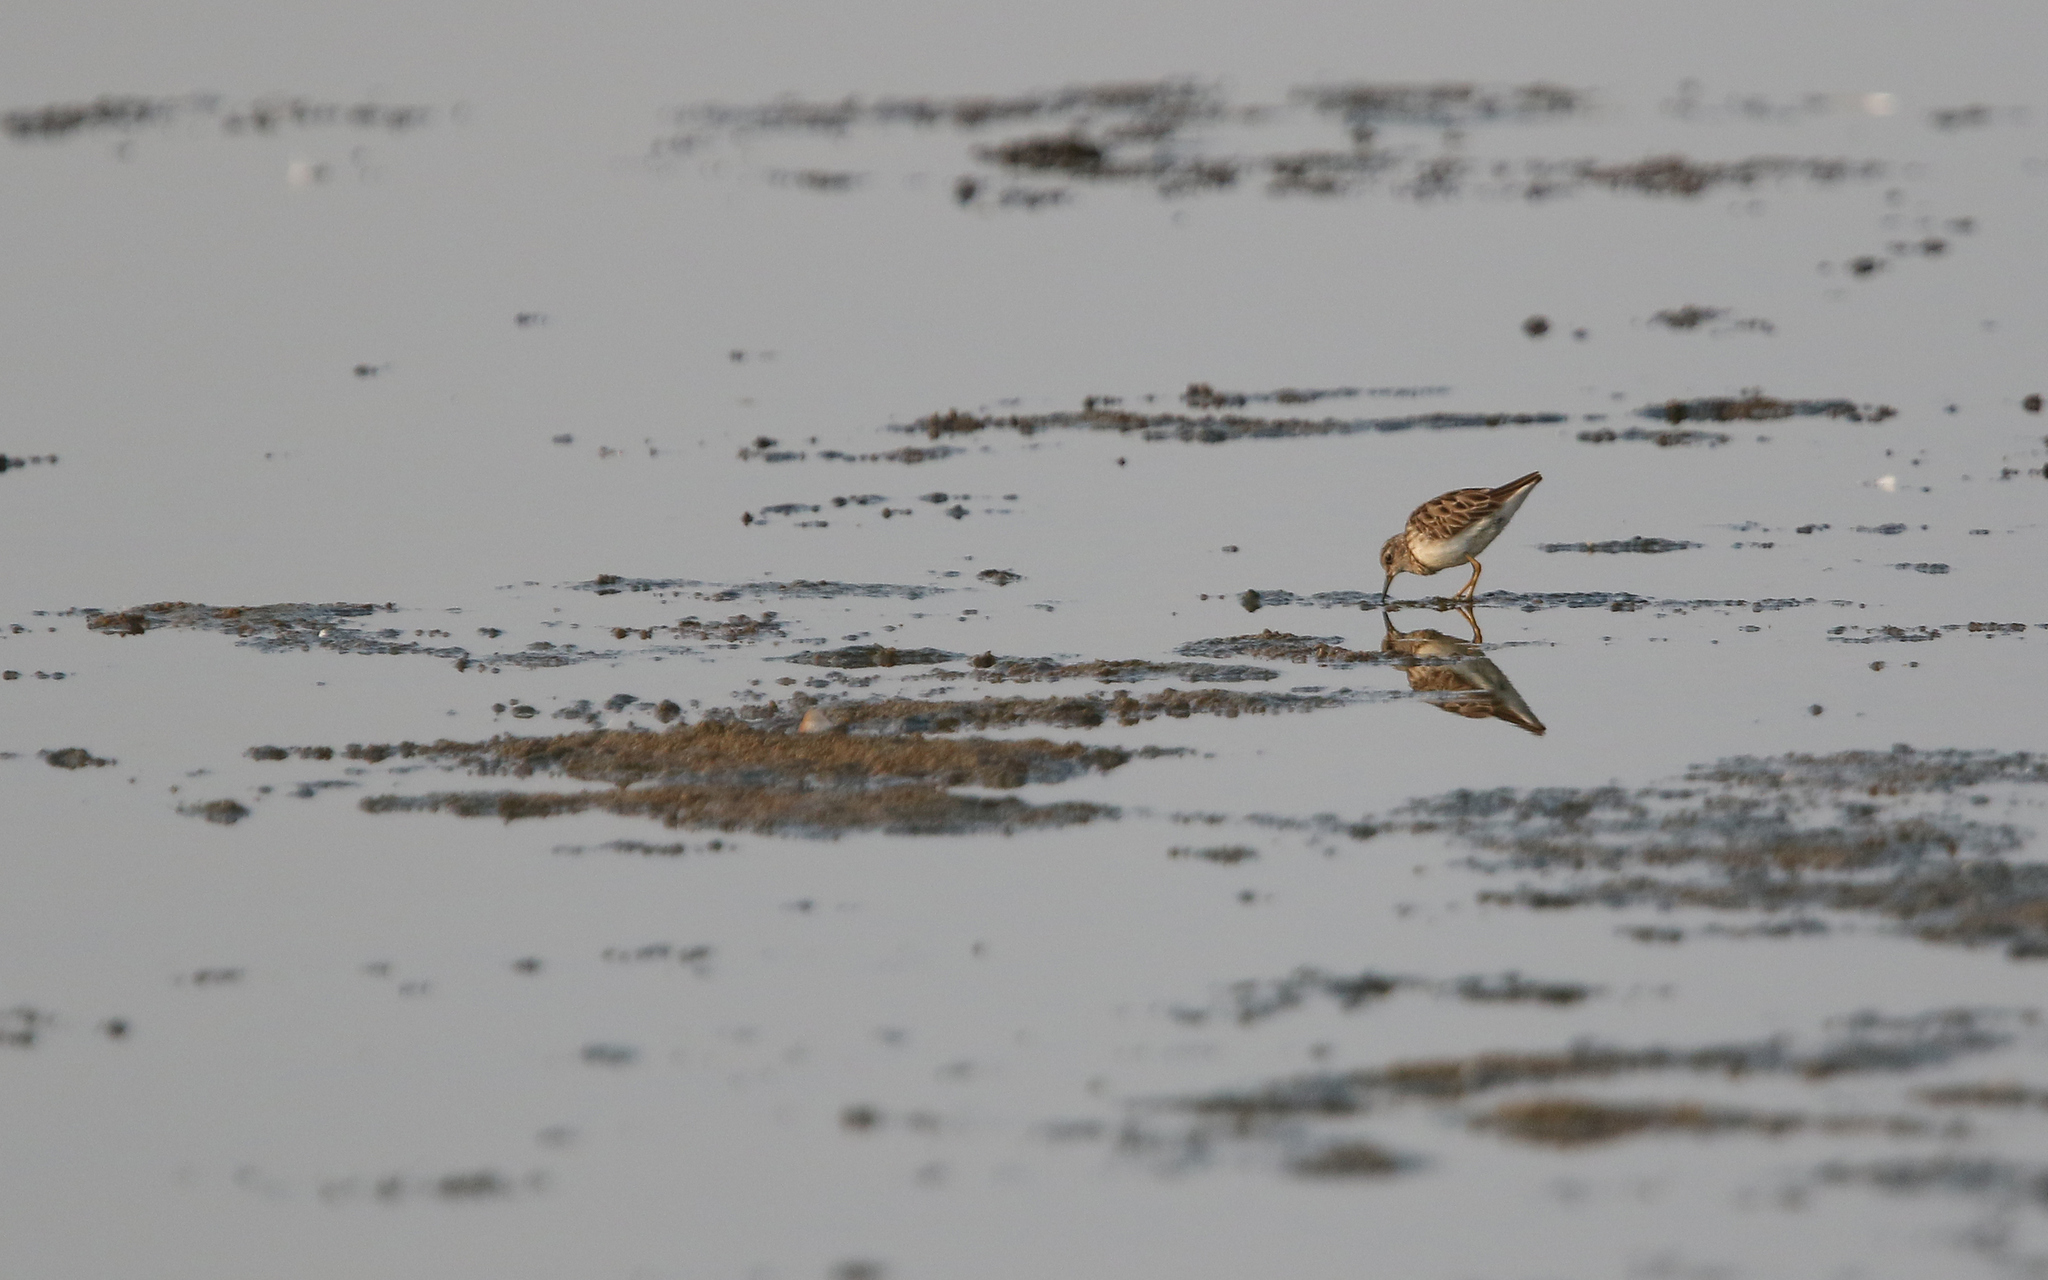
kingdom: Animalia
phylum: Chordata
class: Aves
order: Charadriiformes
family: Scolopacidae
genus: Calidris
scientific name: Calidris subminuta
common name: Long-toed stint
